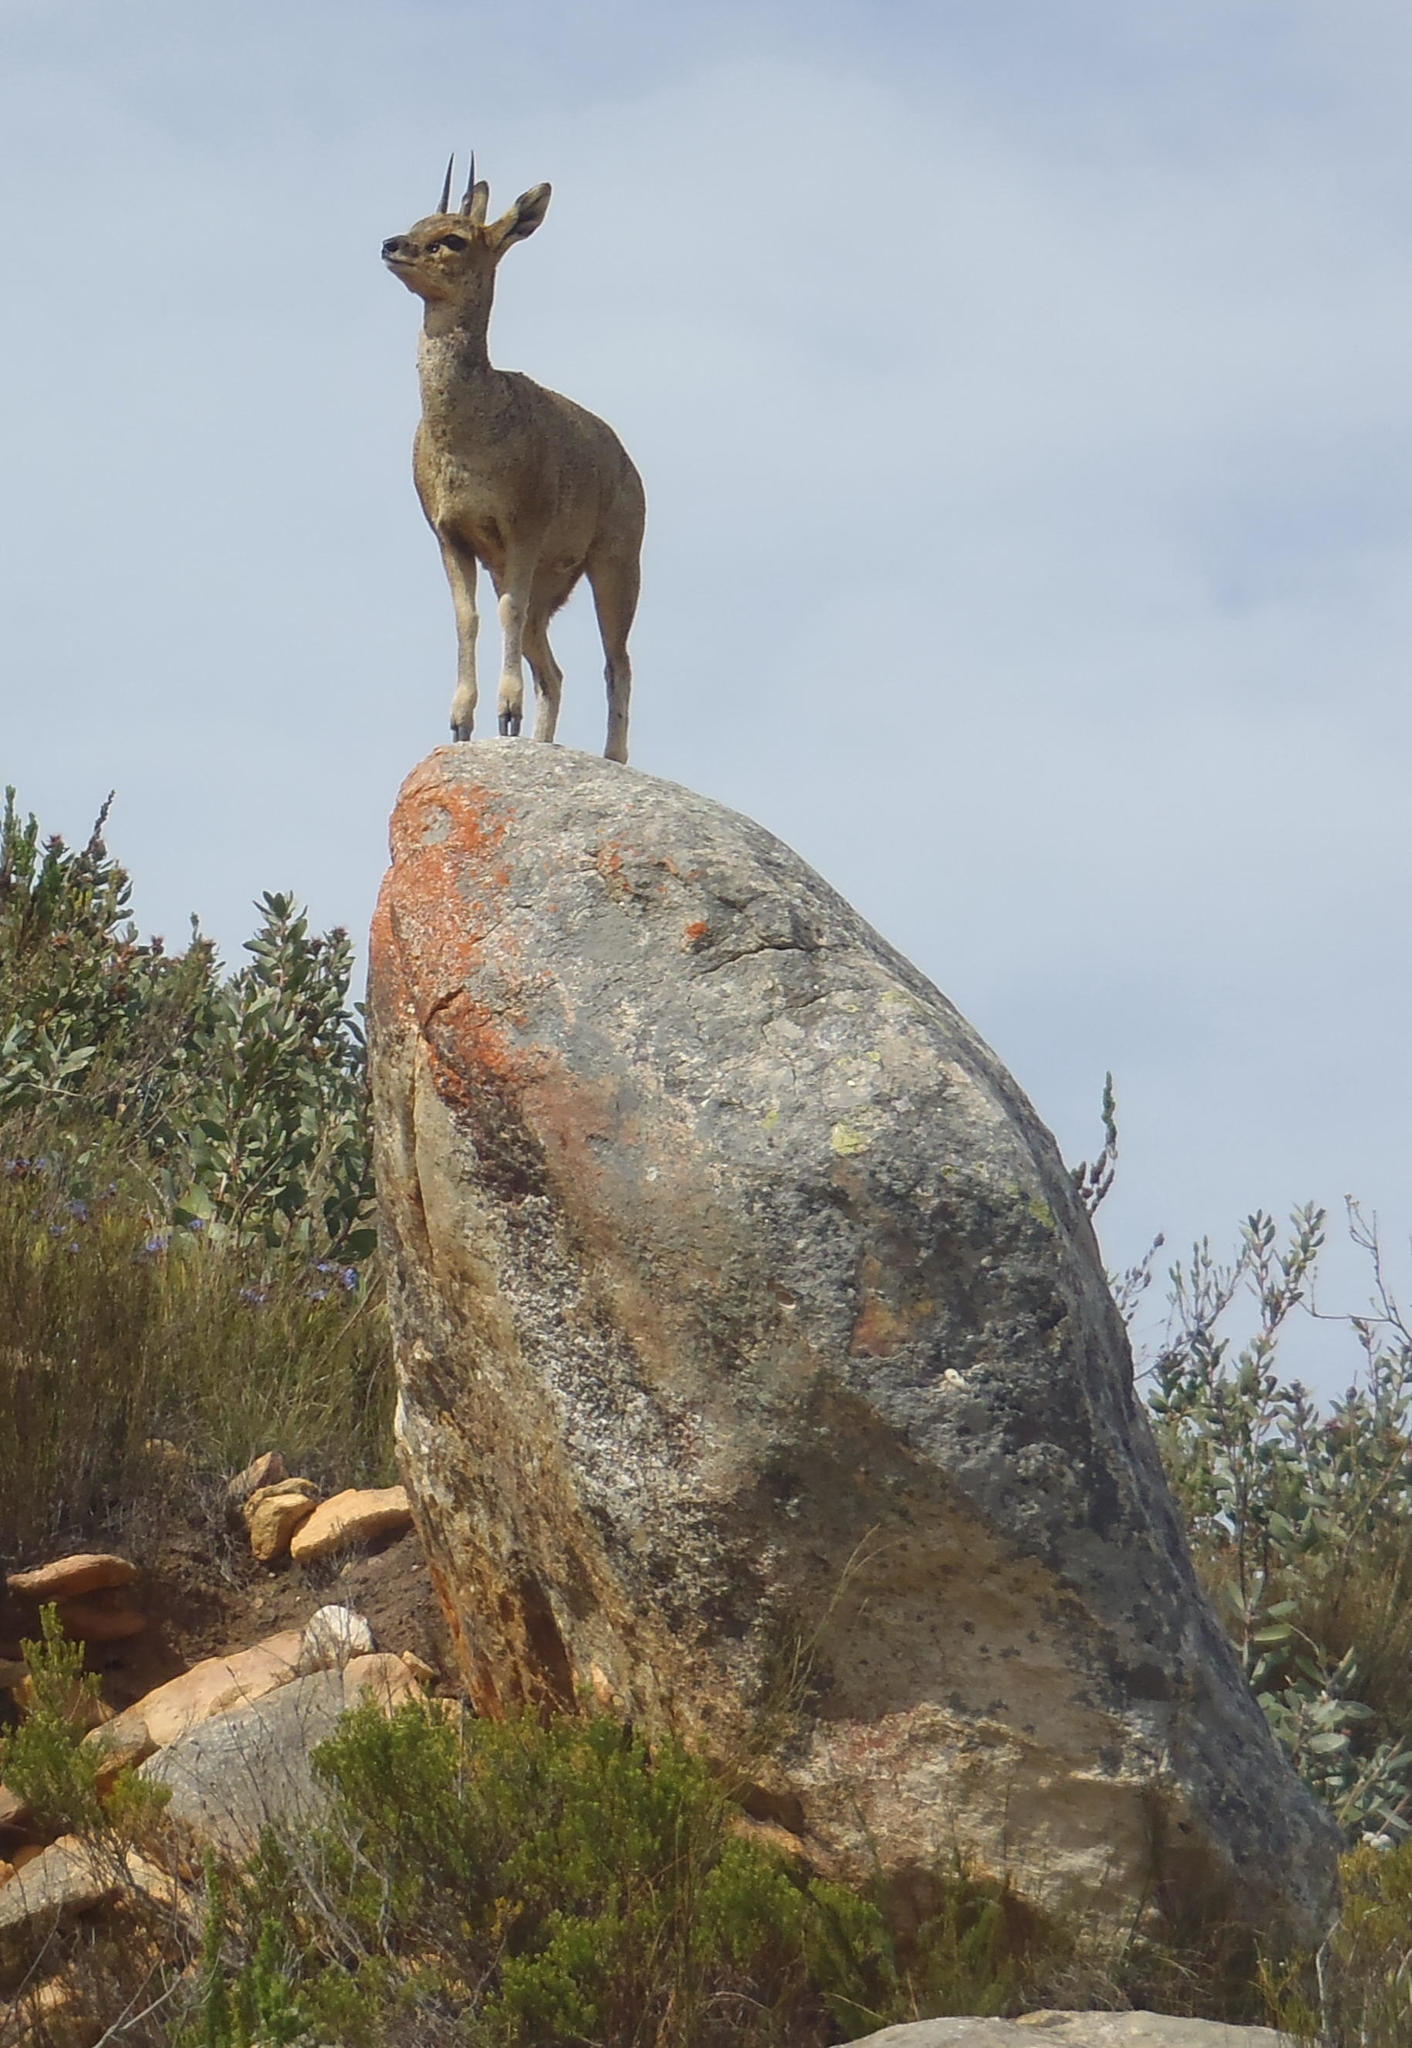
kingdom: Animalia
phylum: Chordata
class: Mammalia
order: Artiodactyla
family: Bovidae
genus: Oreotragus
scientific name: Oreotragus oreotragus
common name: Klipspringer
